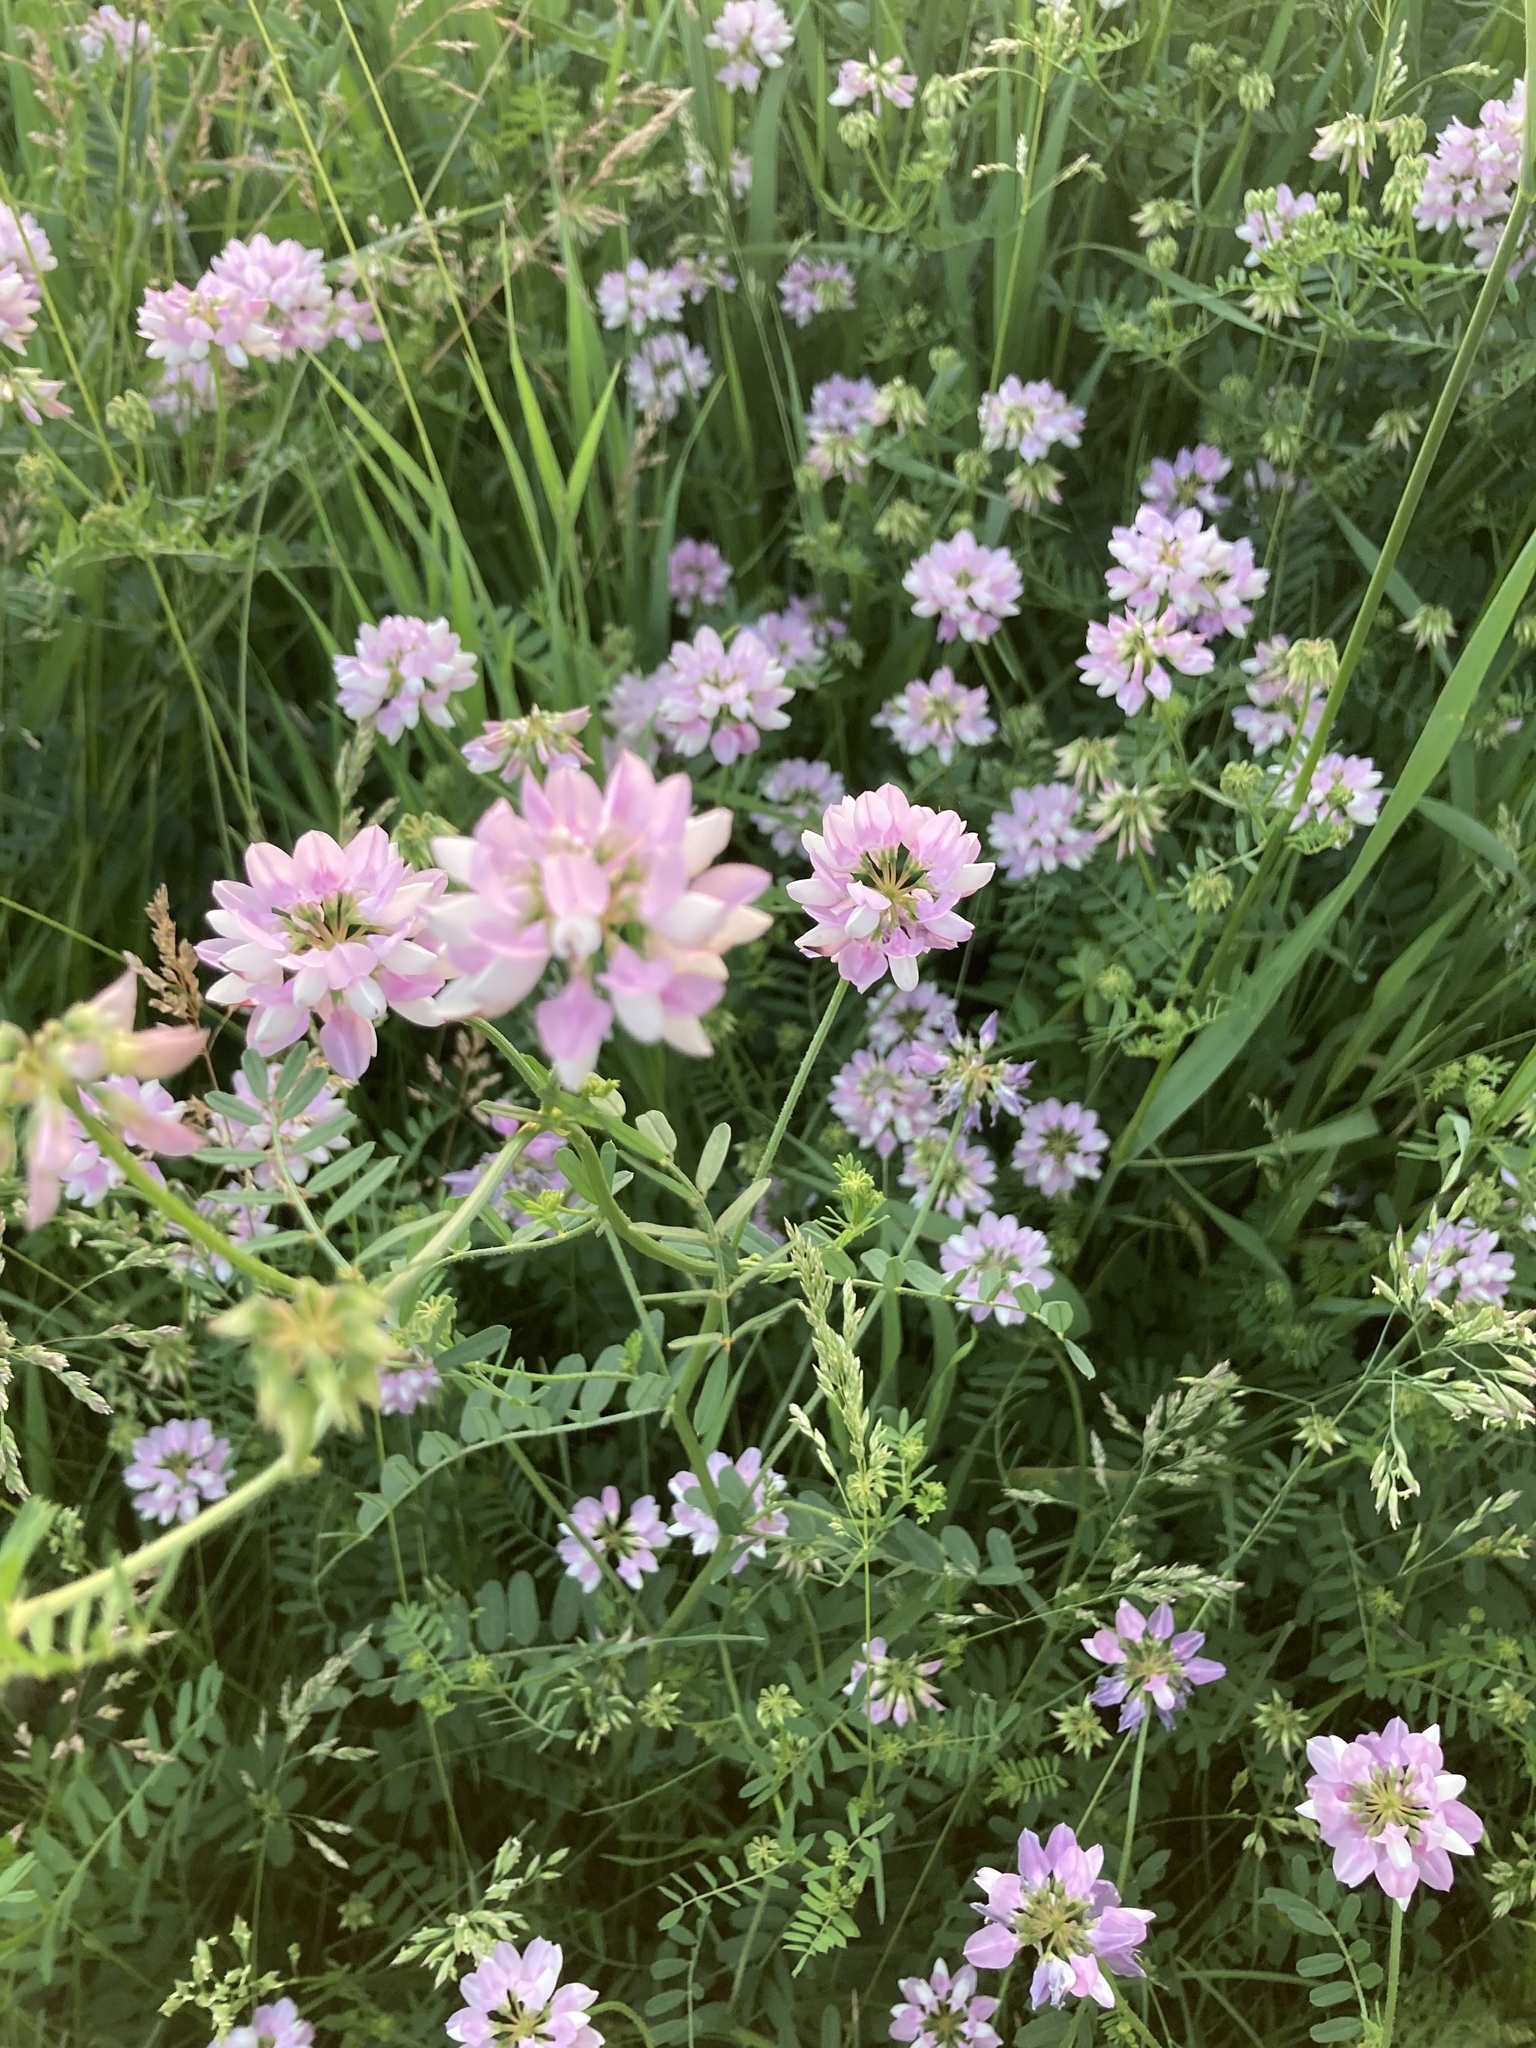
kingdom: Plantae
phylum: Tracheophyta
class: Magnoliopsida
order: Fabales
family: Fabaceae
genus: Coronilla
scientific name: Coronilla varia
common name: Crownvetch
